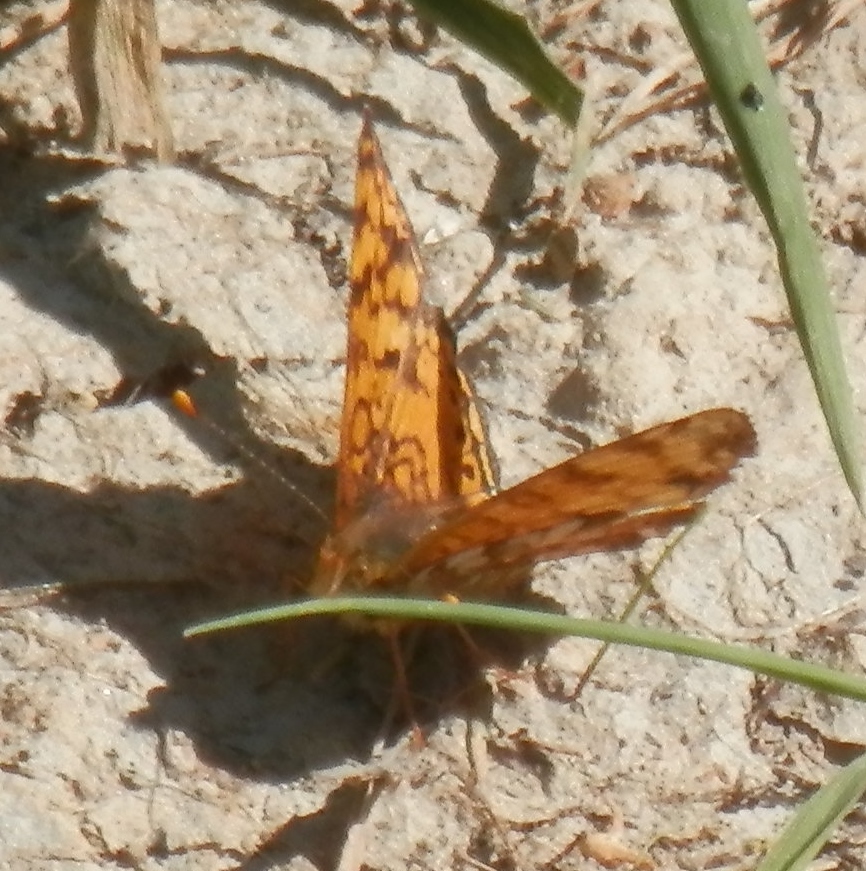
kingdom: Animalia
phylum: Arthropoda
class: Insecta
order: Lepidoptera
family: Nymphalidae
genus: Eresia
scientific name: Eresia aveyrona
